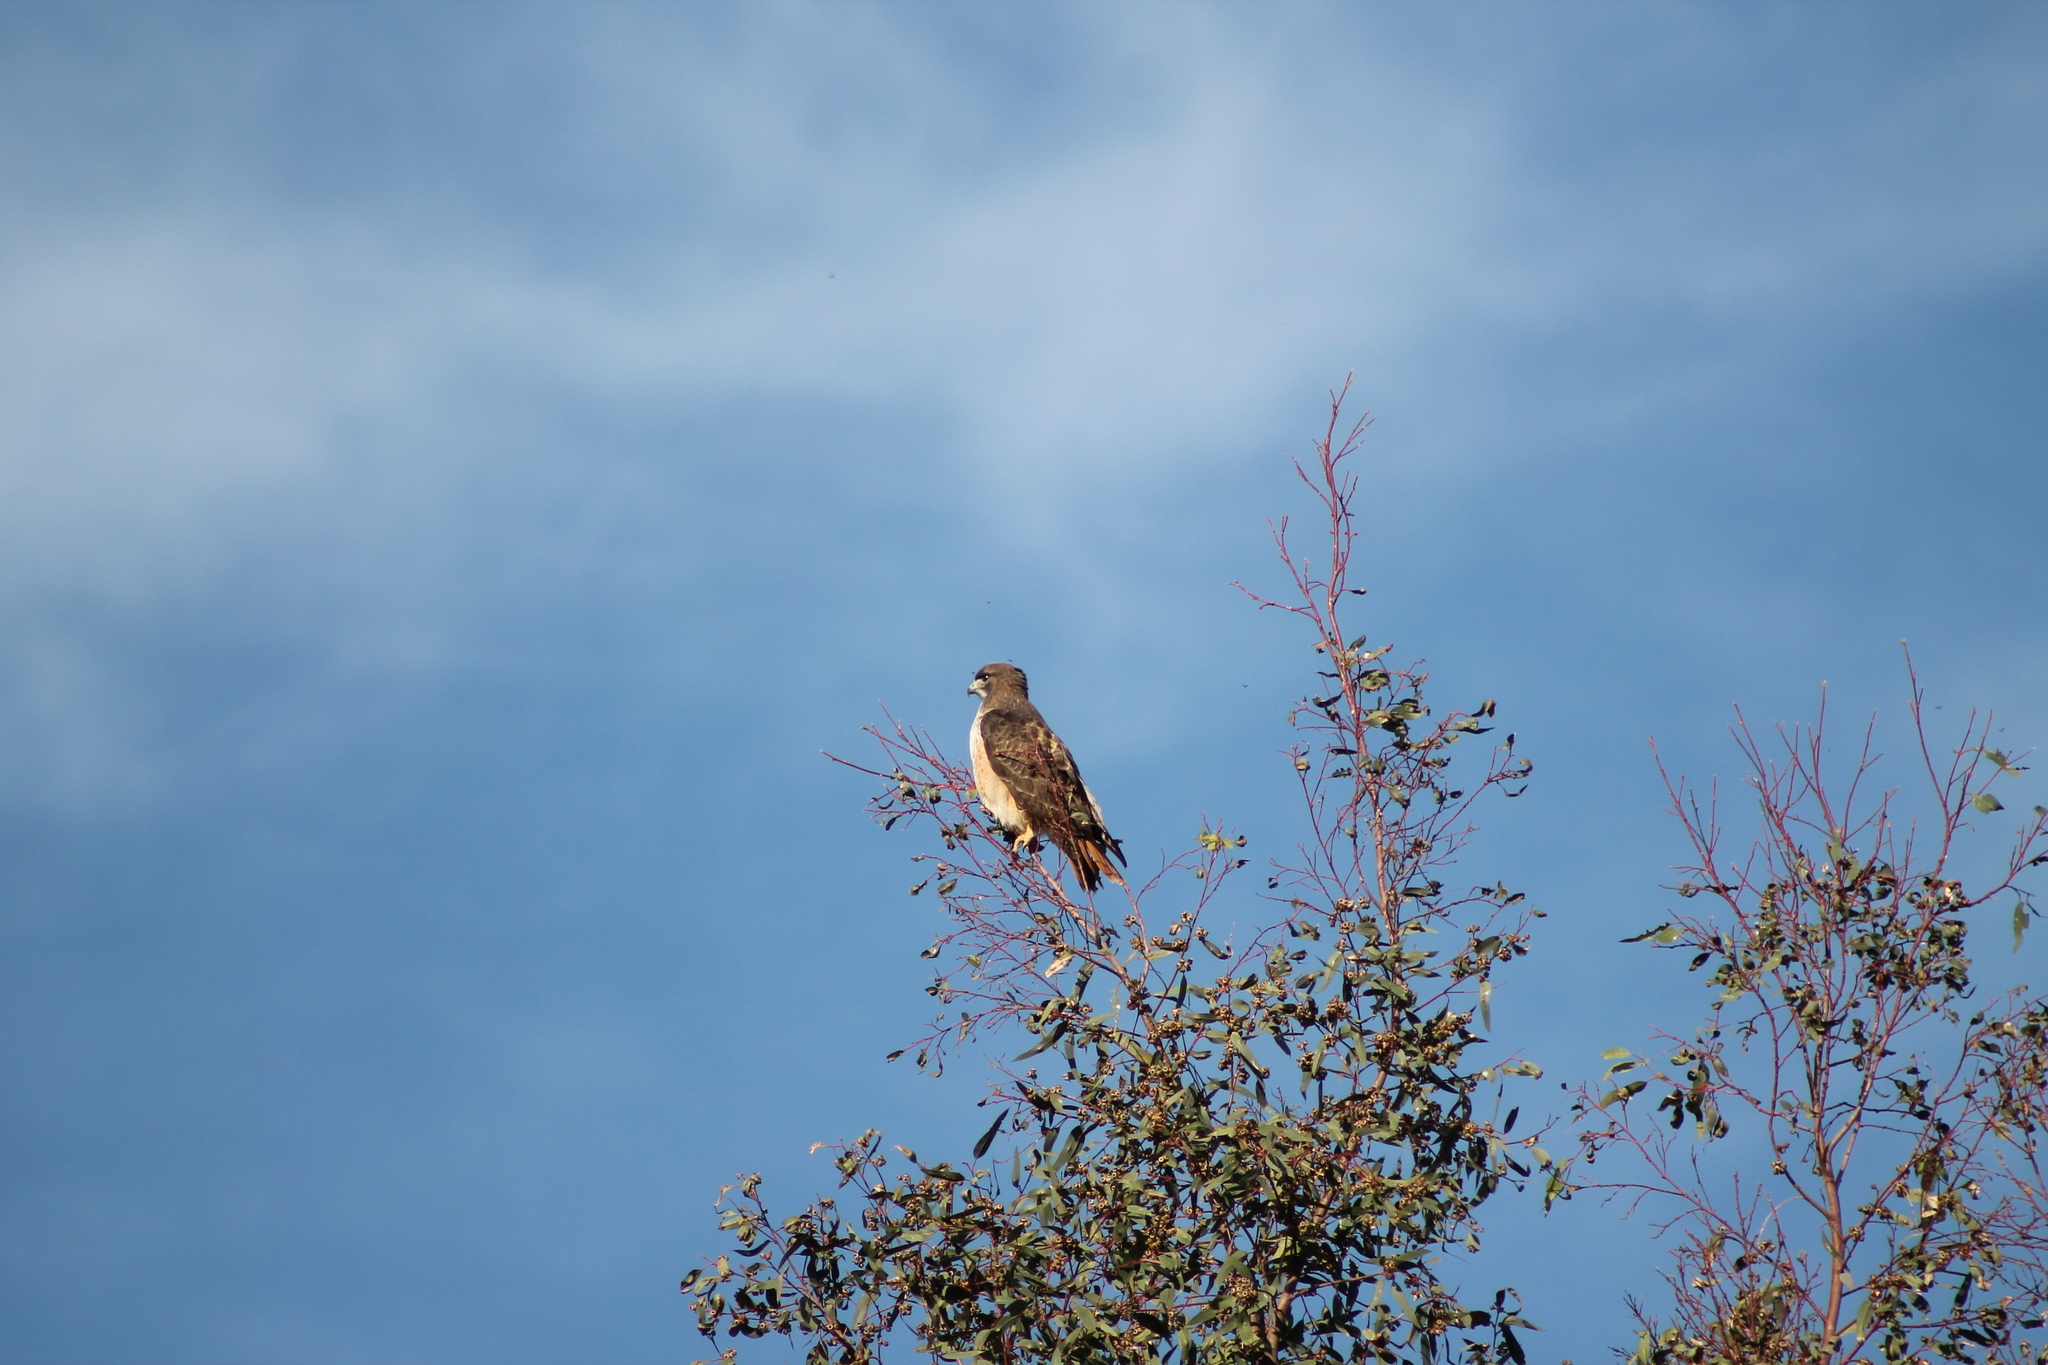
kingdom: Animalia
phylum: Chordata
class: Aves
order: Accipitriformes
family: Accipitridae
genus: Buteo
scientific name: Buteo jamaicensis
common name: Red-tailed hawk
